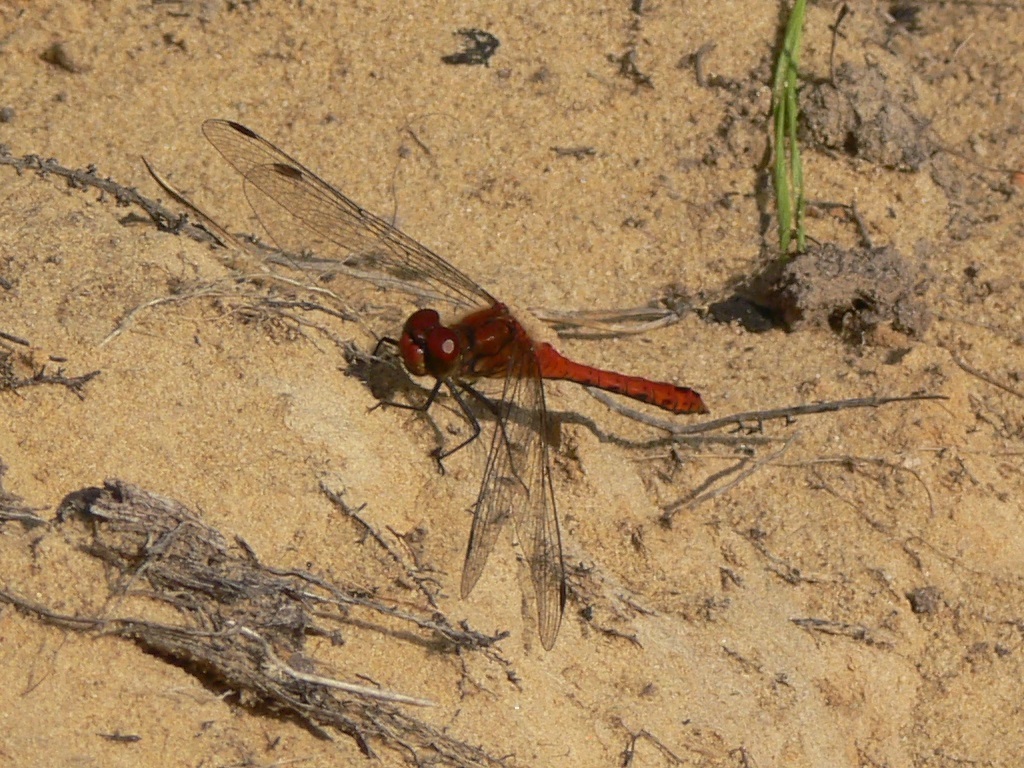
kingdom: Animalia
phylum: Arthropoda
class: Insecta
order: Odonata
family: Libellulidae
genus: Sympetrum
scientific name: Sympetrum sanguineum
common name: Ruddy darter
